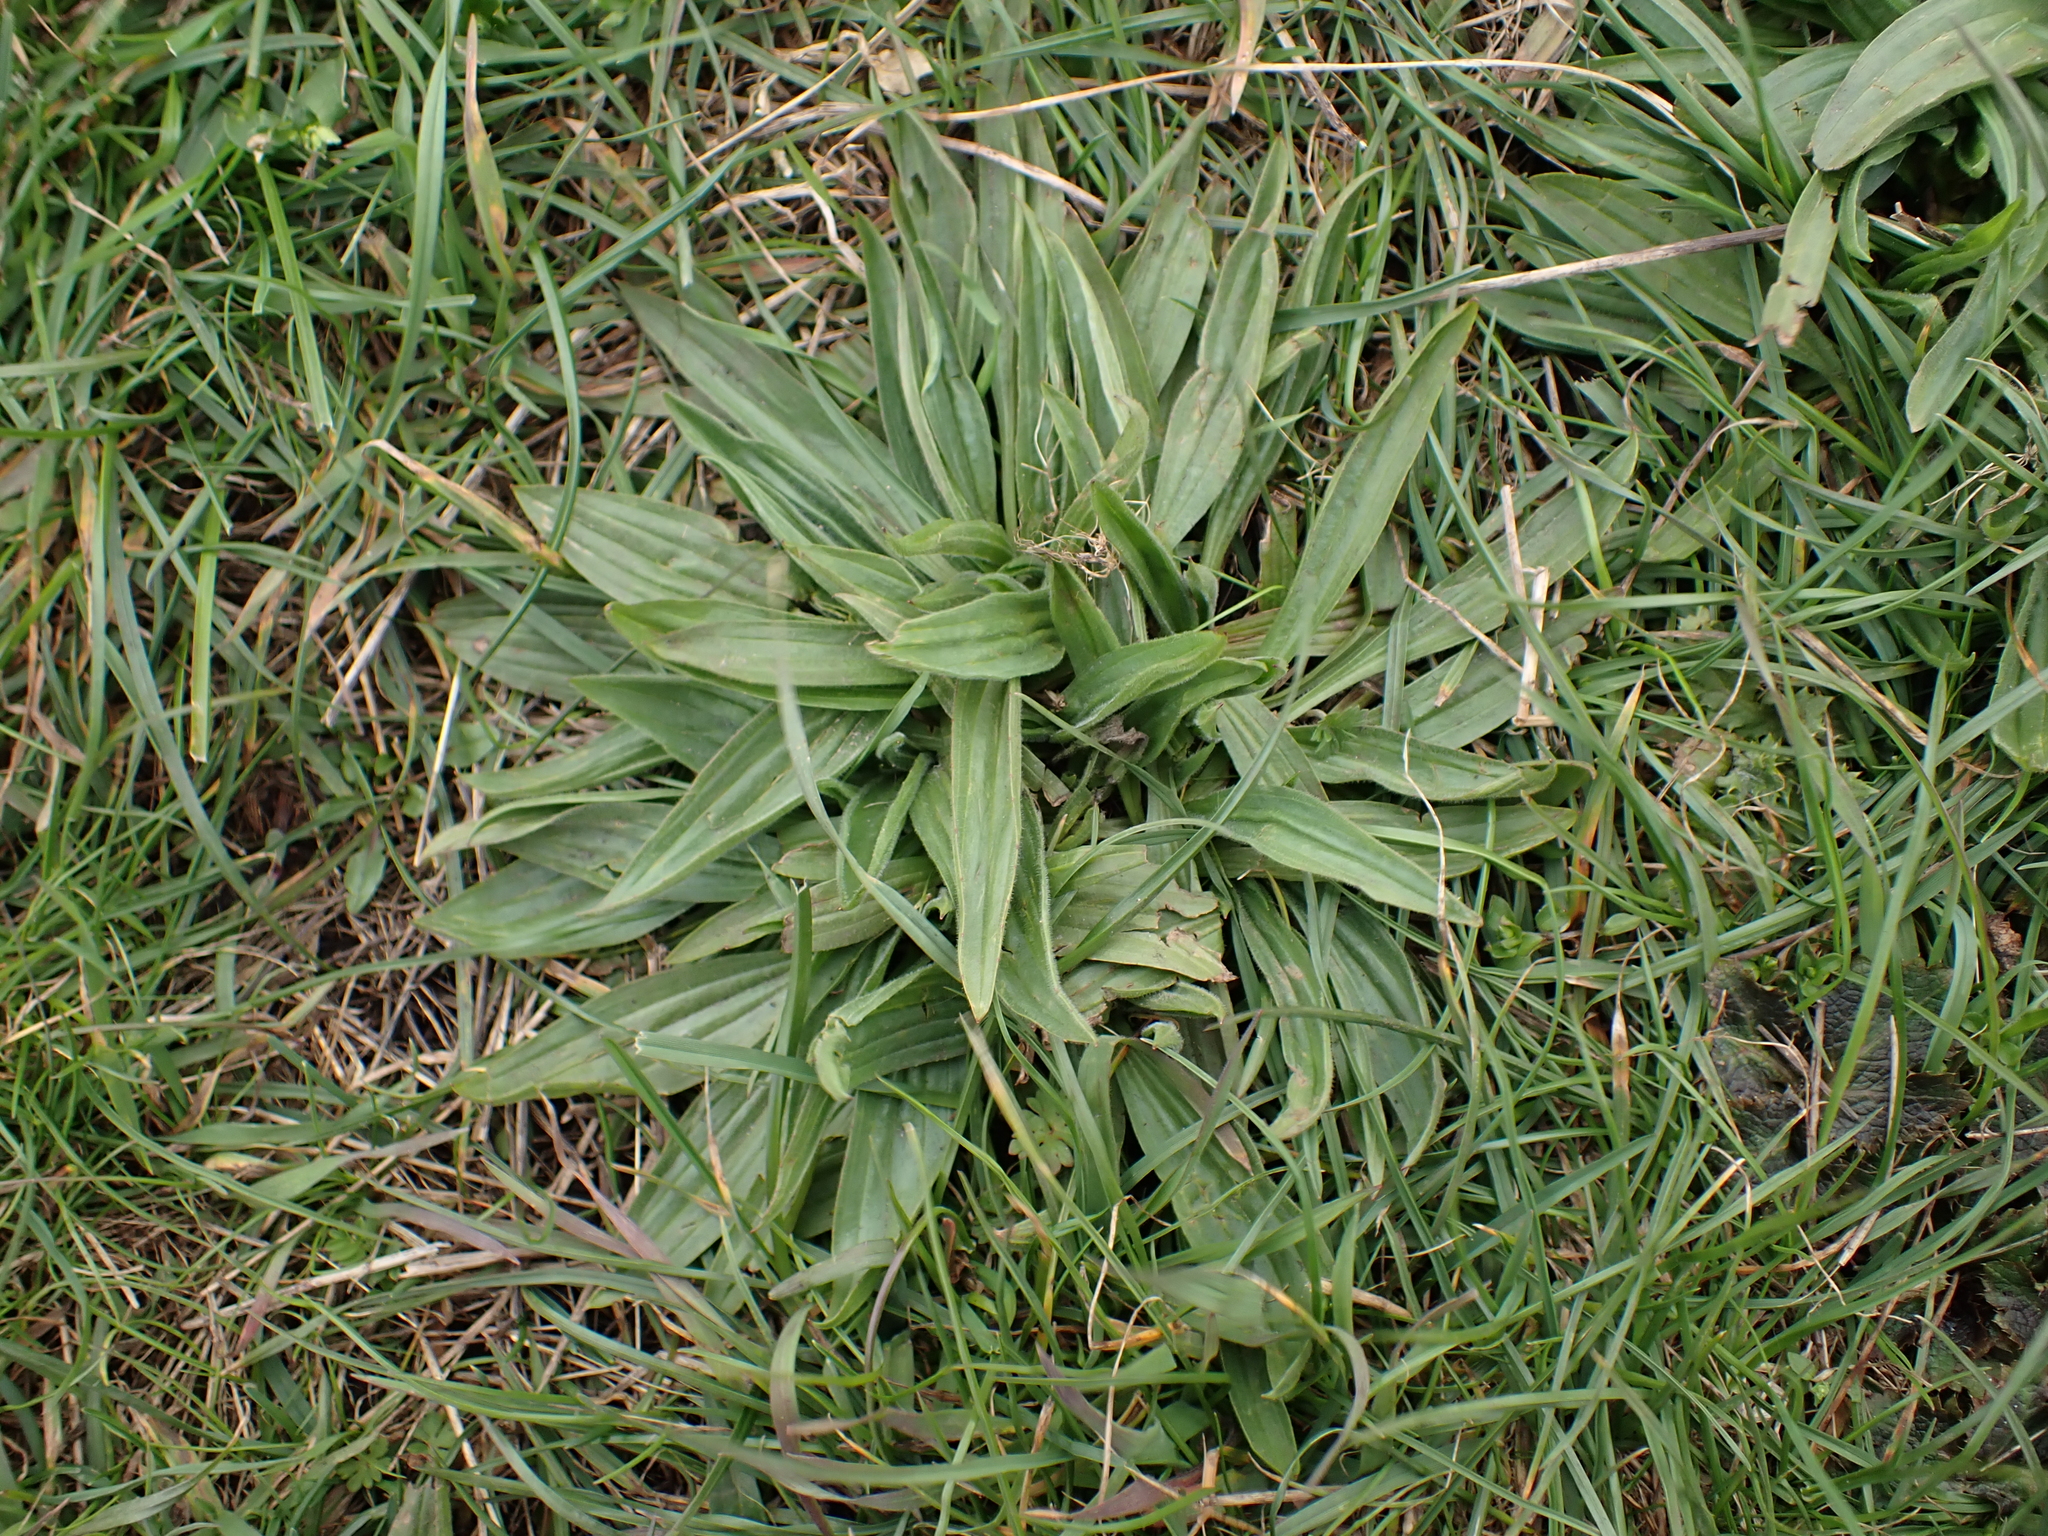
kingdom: Plantae
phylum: Tracheophyta
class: Magnoliopsida
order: Lamiales
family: Plantaginaceae
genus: Plantago
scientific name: Plantago lanceolata
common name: Ribwort plantain
